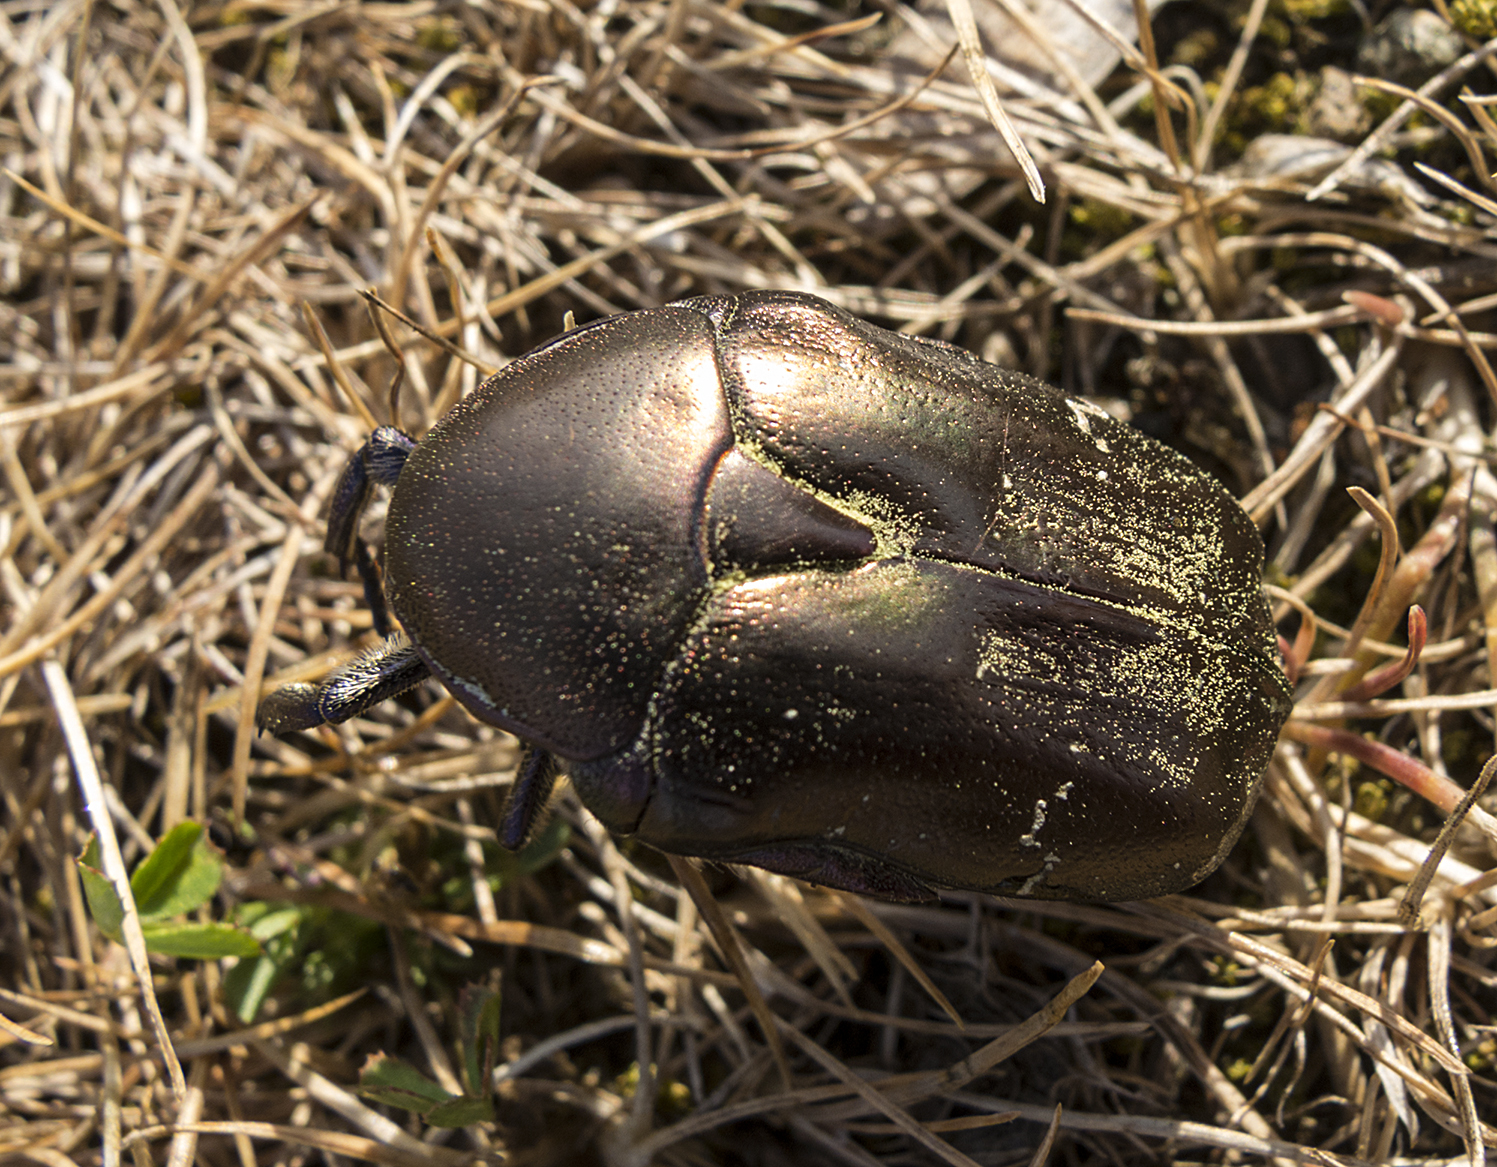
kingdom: Animalia
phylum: Arthropoda
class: Insecta
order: Coleoptera
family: Scarabaeidae
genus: Protaetia
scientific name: Protaetia cuprea
